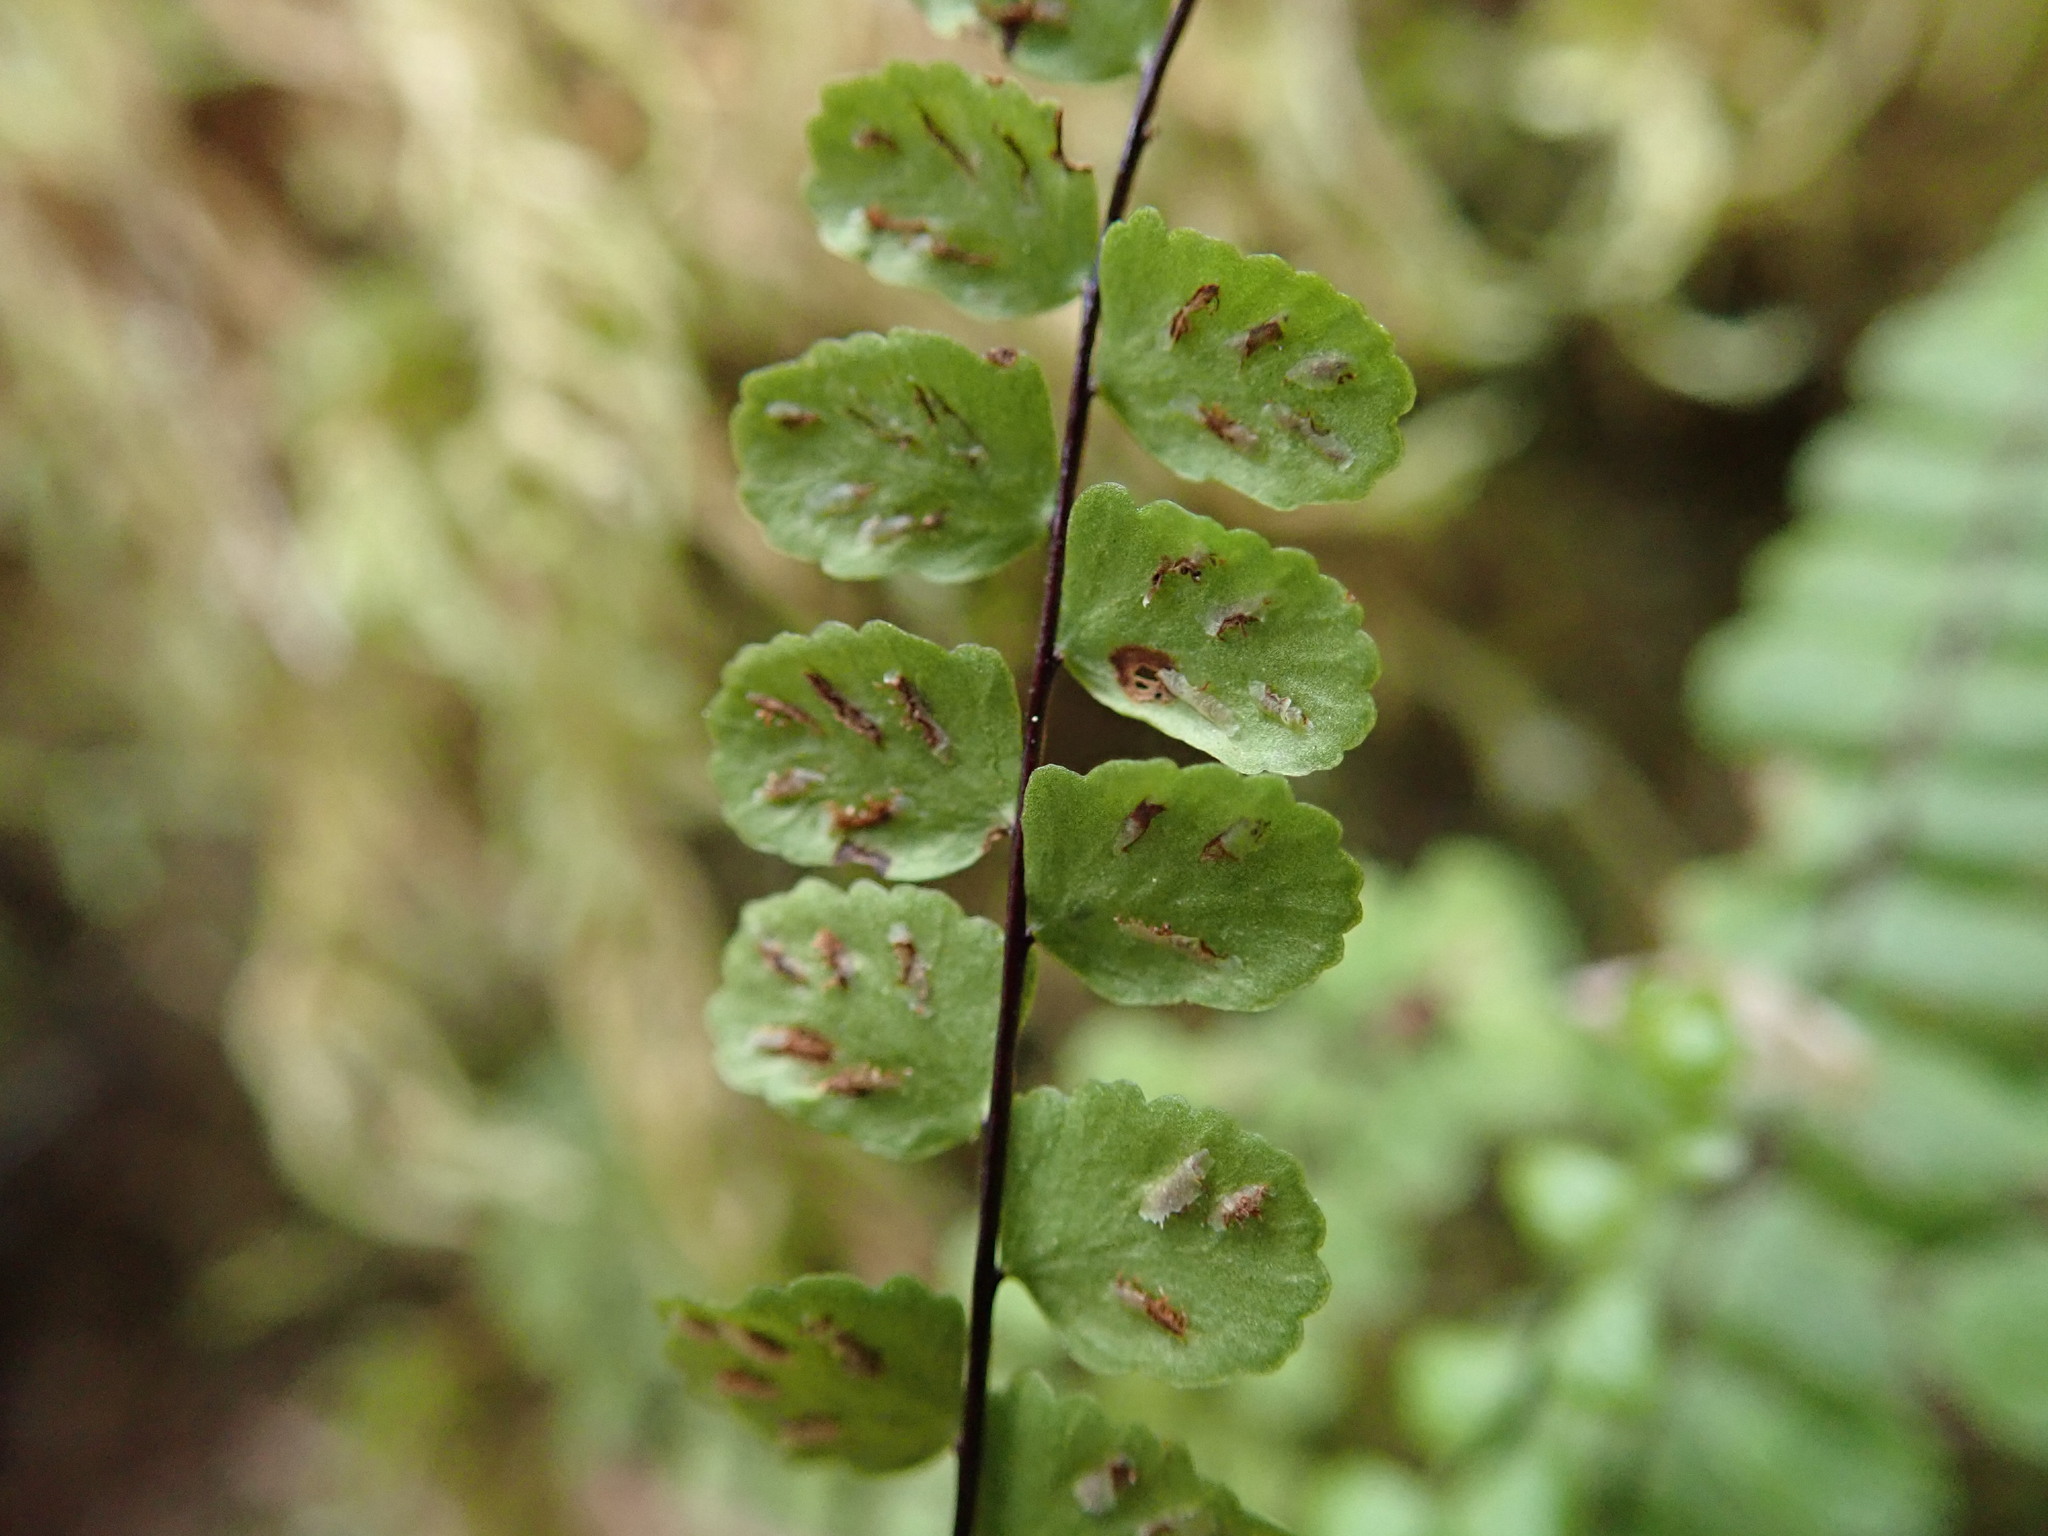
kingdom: Plantae
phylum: Tracheophyta
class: Polypodiopsida
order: Polypodiales
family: Aspleniaceae
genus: Asplenium
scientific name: Asplenium trichomanes
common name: Maidenhair spleenwort
